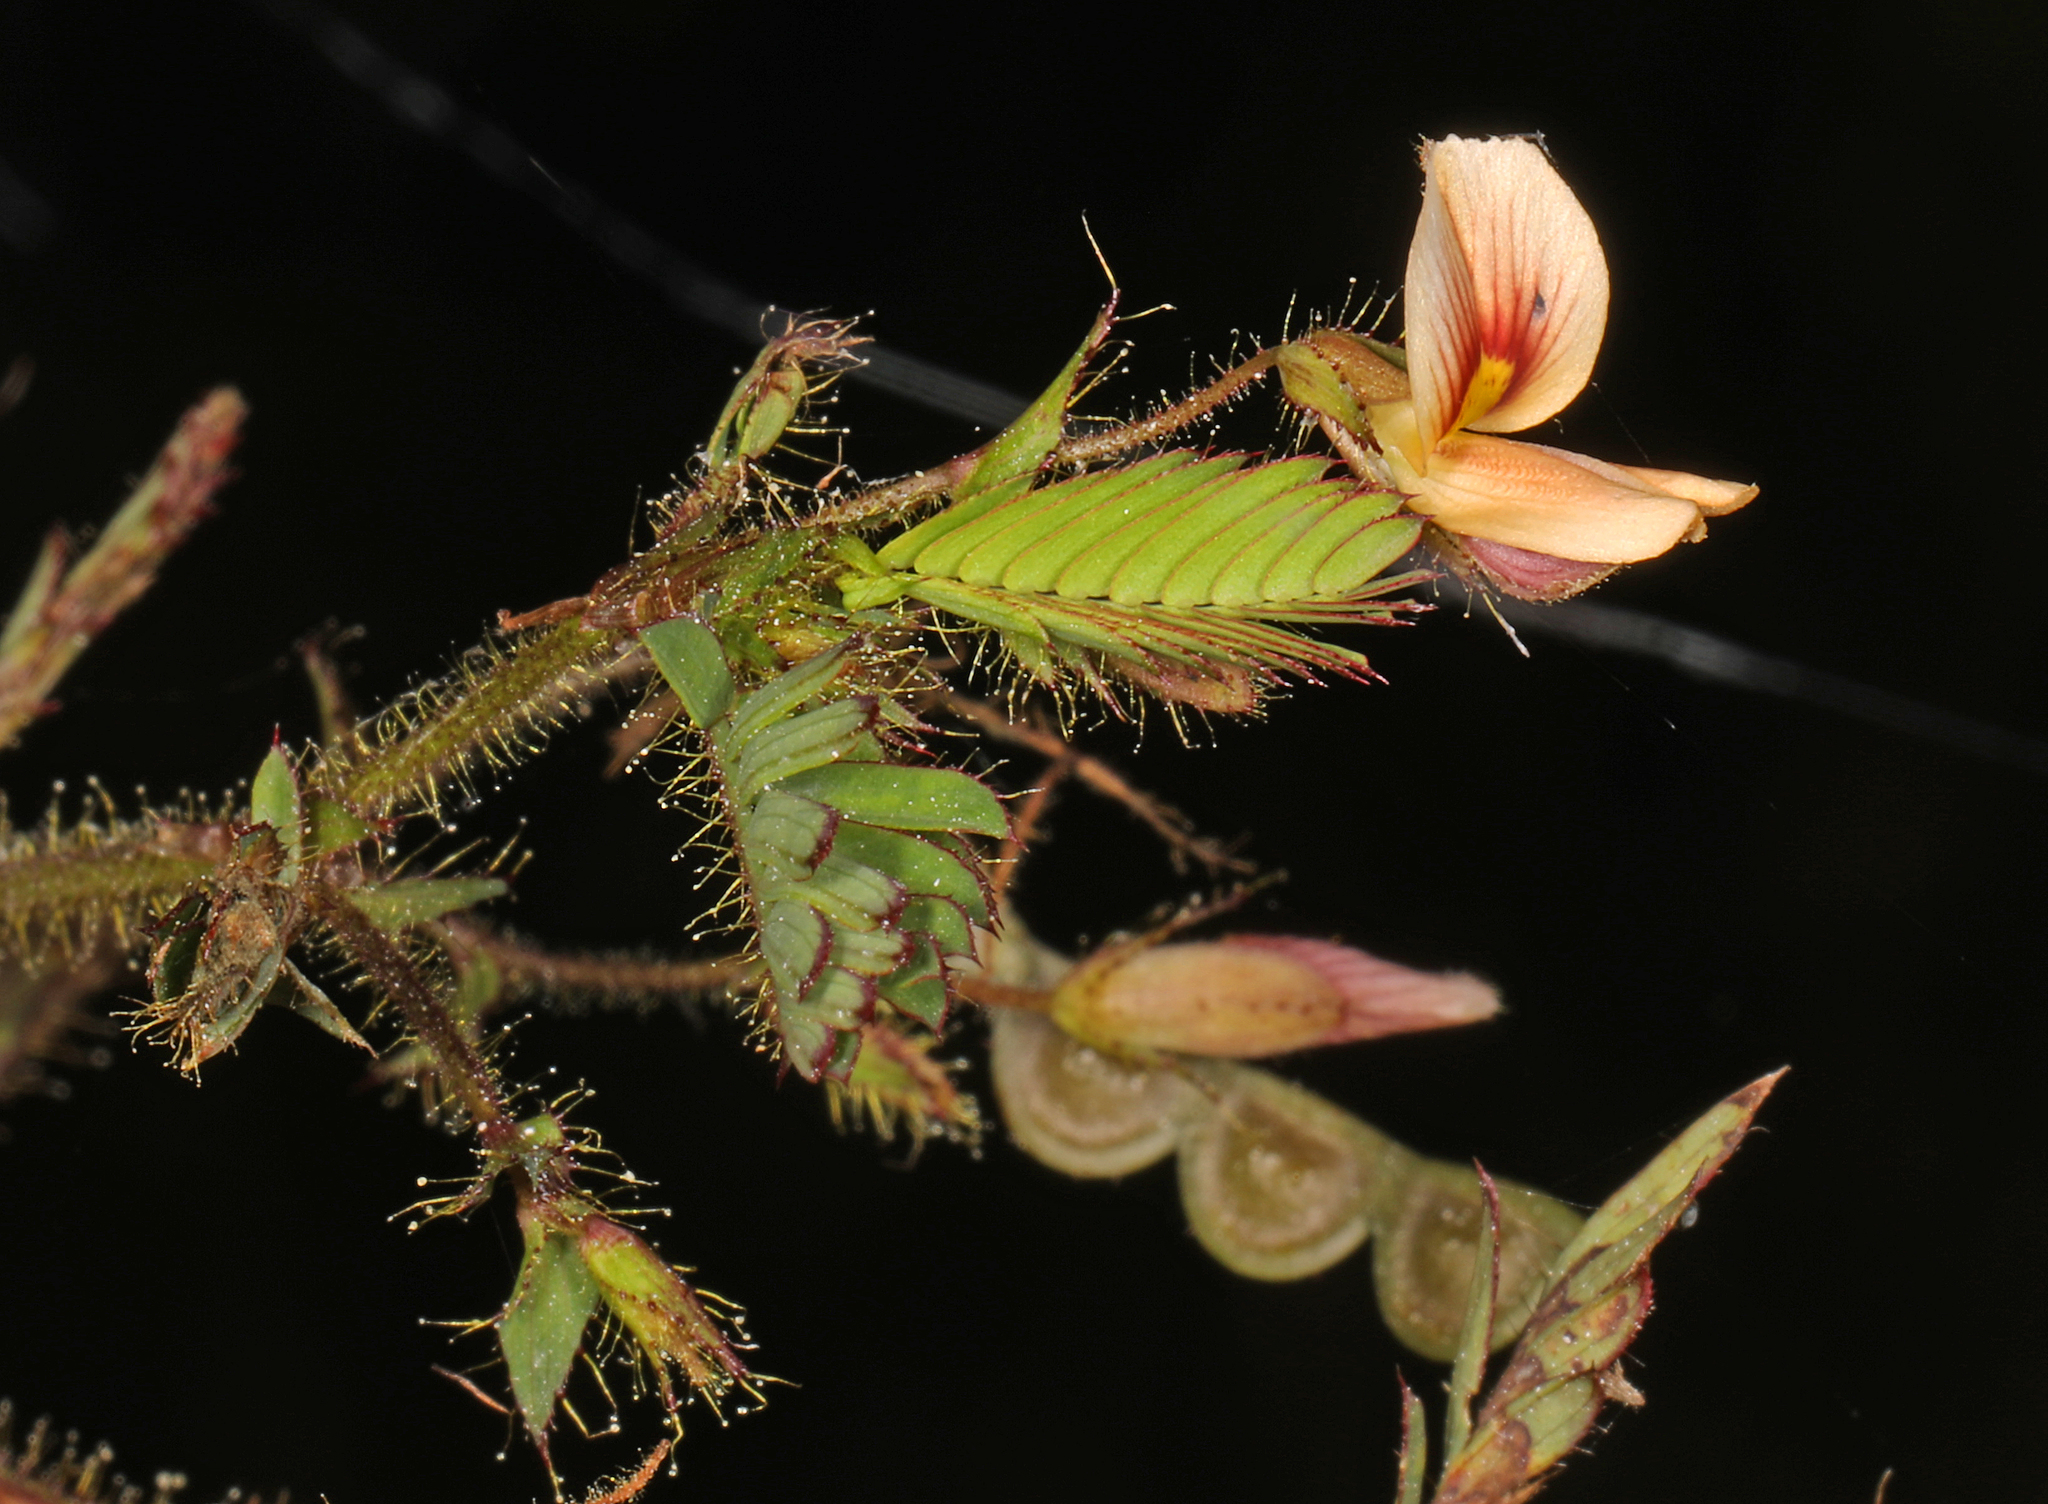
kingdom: Plantae
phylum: Tracheophyta
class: Magnoliopsida
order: Fabales
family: Fabaceae
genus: Aeschynomene
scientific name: Aeschynomene americana
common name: Joint-vetch
